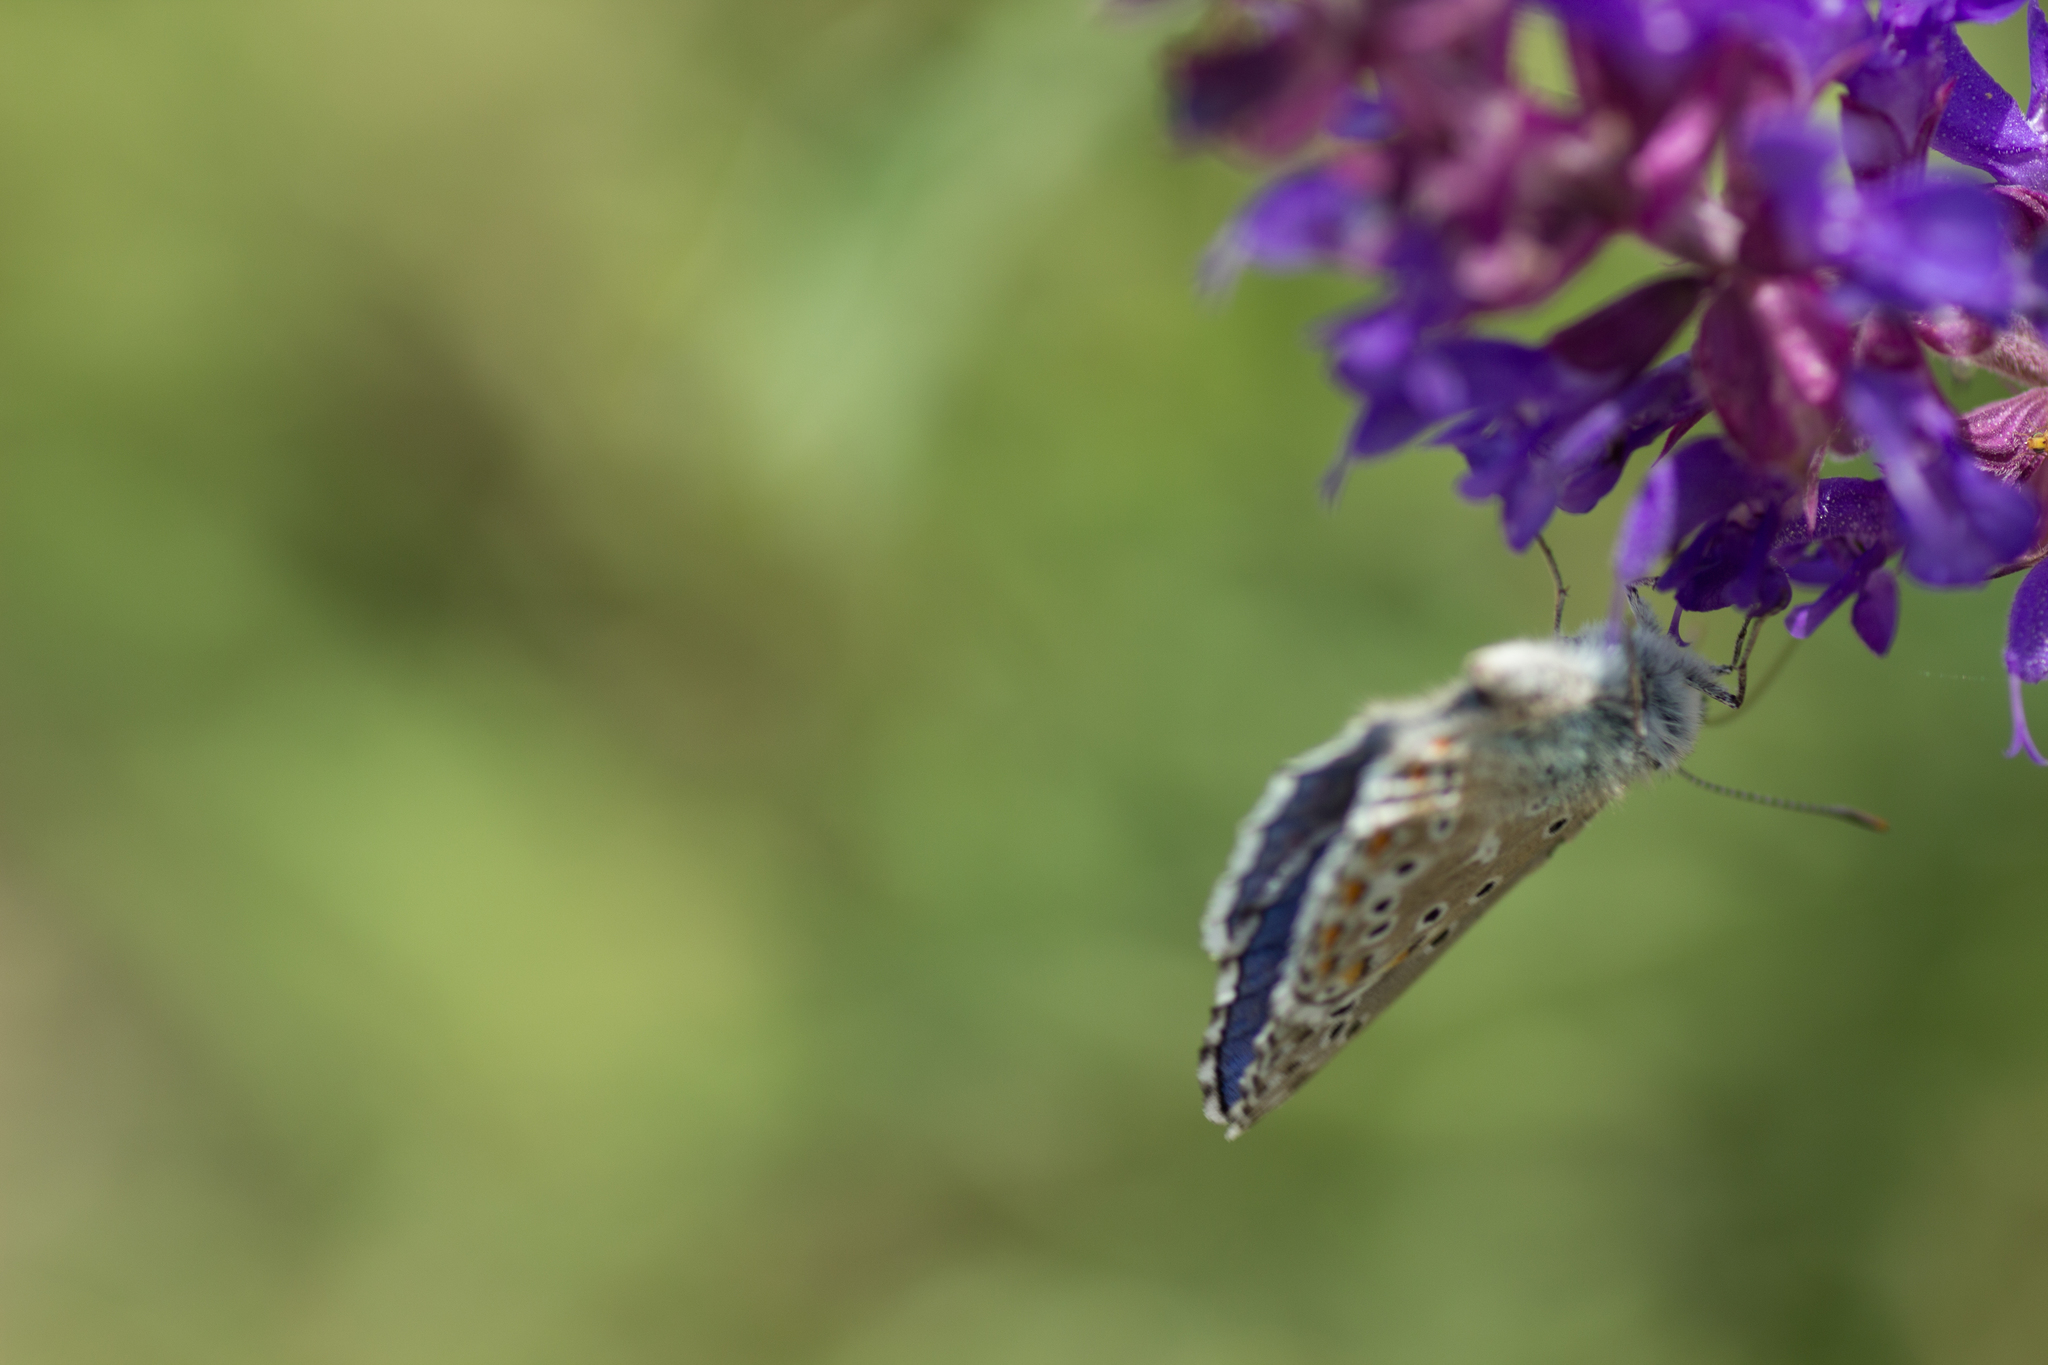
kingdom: Animalia
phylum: Arthropoda
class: Insecta
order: Lepidoptera
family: Lycaenidae
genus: Lysandra
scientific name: Lysandra bellargus
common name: Adonis blue
